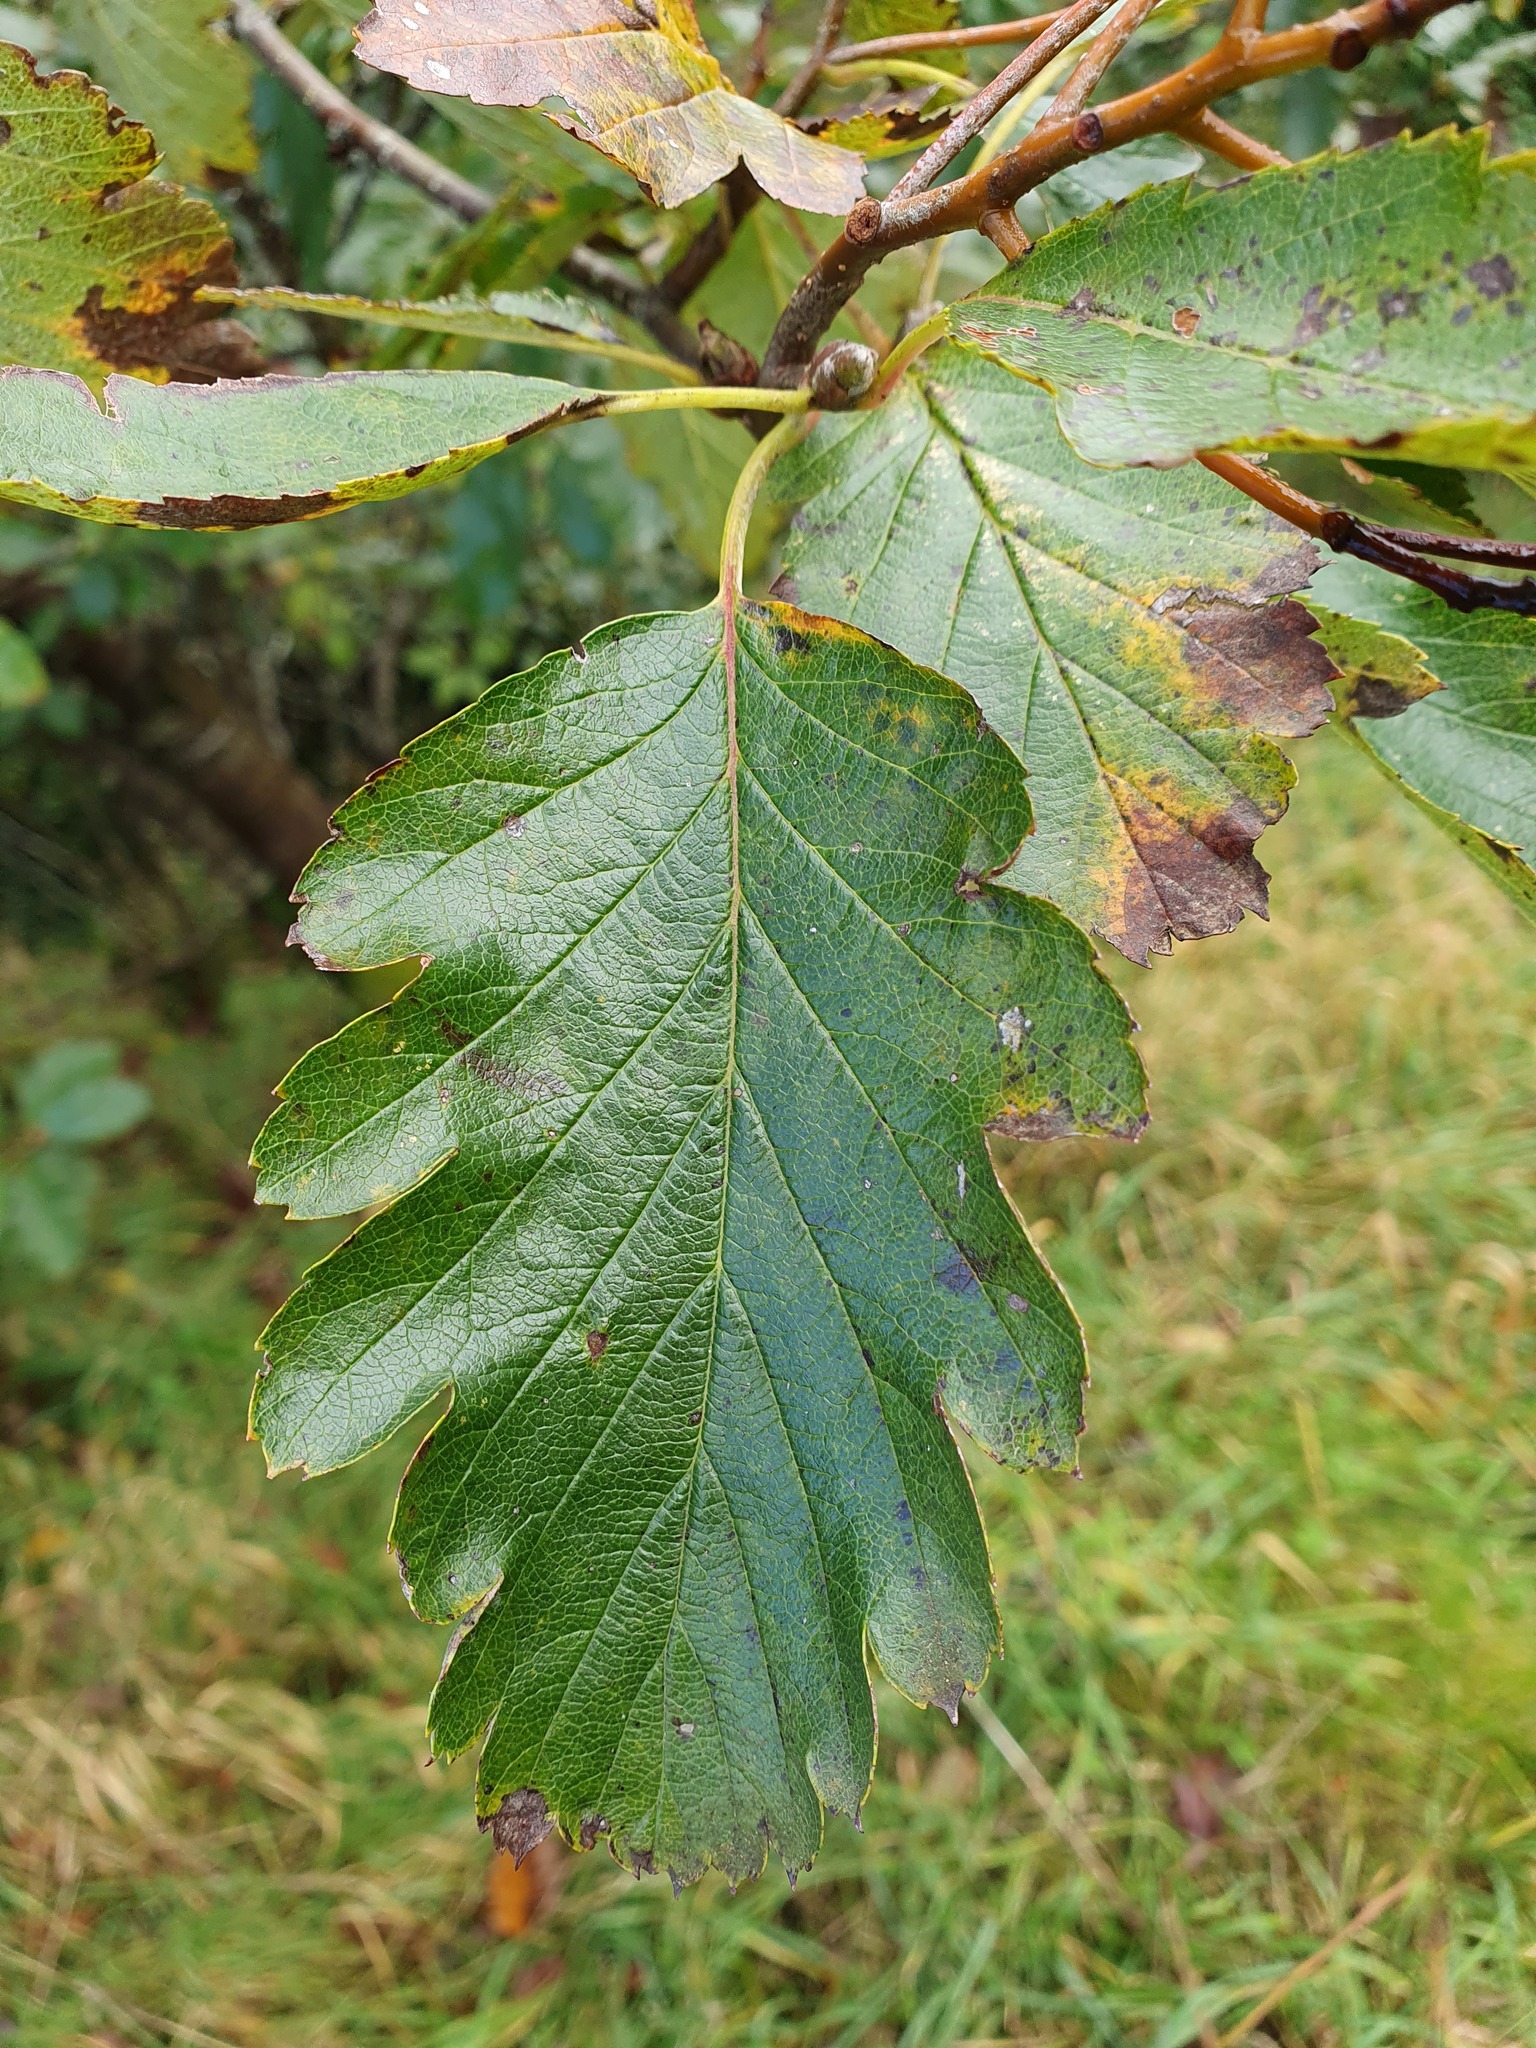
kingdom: Plantae
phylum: Tracheophyta
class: Magnoliopsida
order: Rosales
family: Rosaceae
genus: Scandosorbus
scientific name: Scandosorbus intermedia
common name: Swedish whitebeam
